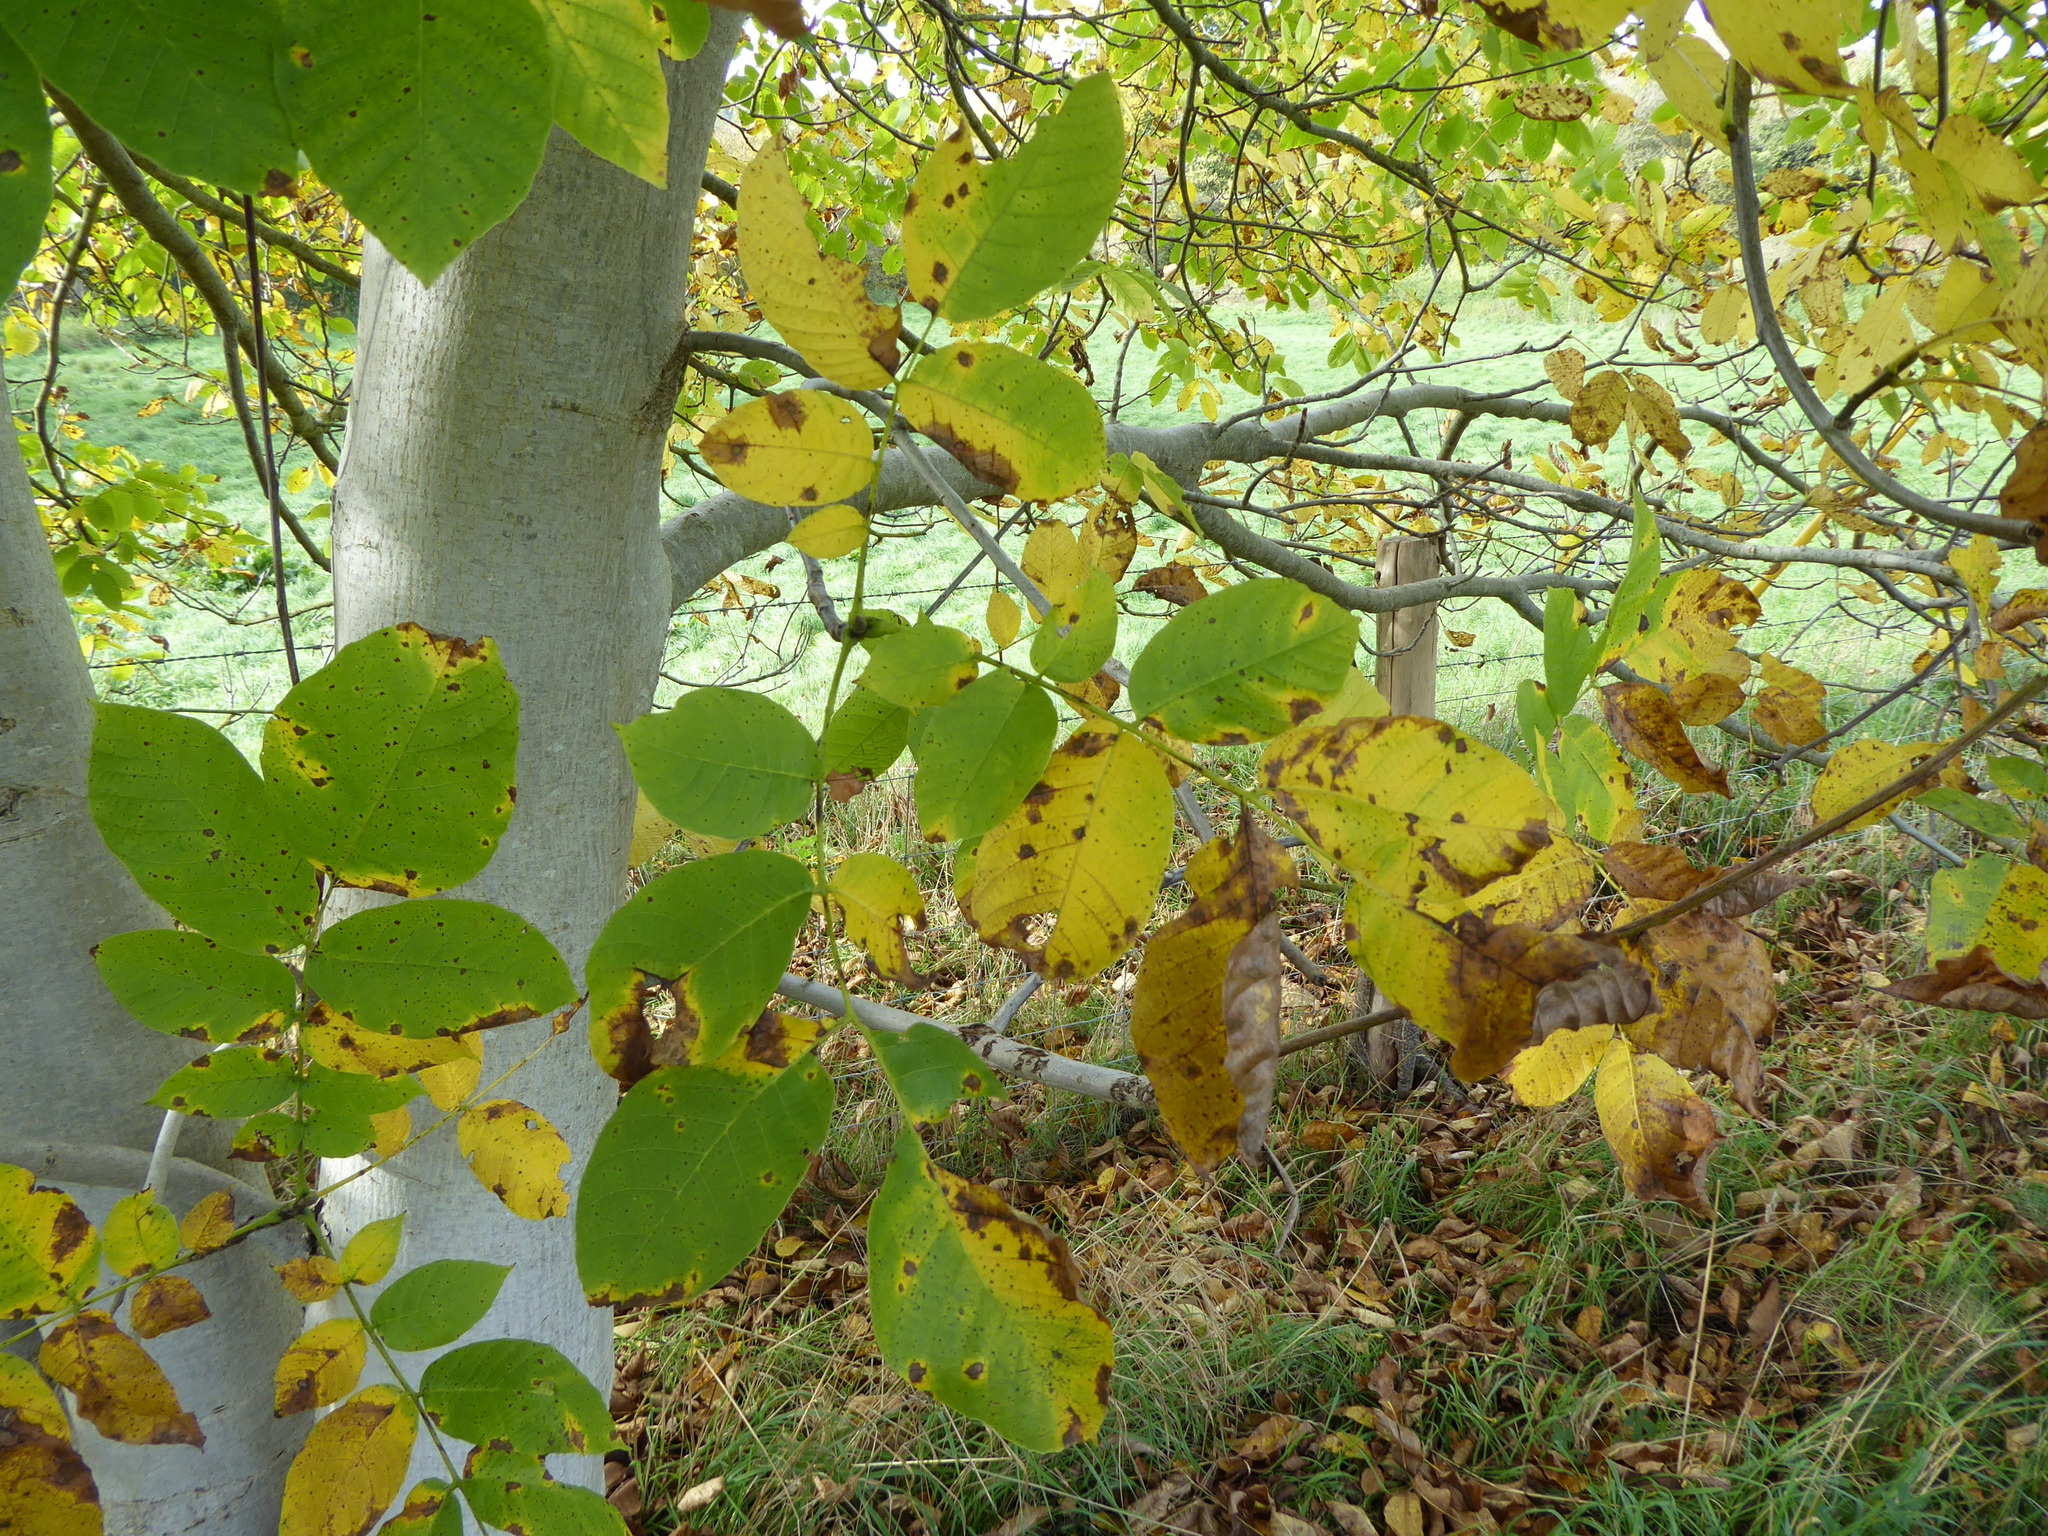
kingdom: Plantae
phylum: Tracheophyta
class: Magnoliopsida
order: Fagales
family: Juglandaceae
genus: Juglans
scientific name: Juglans regia
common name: Walnut
